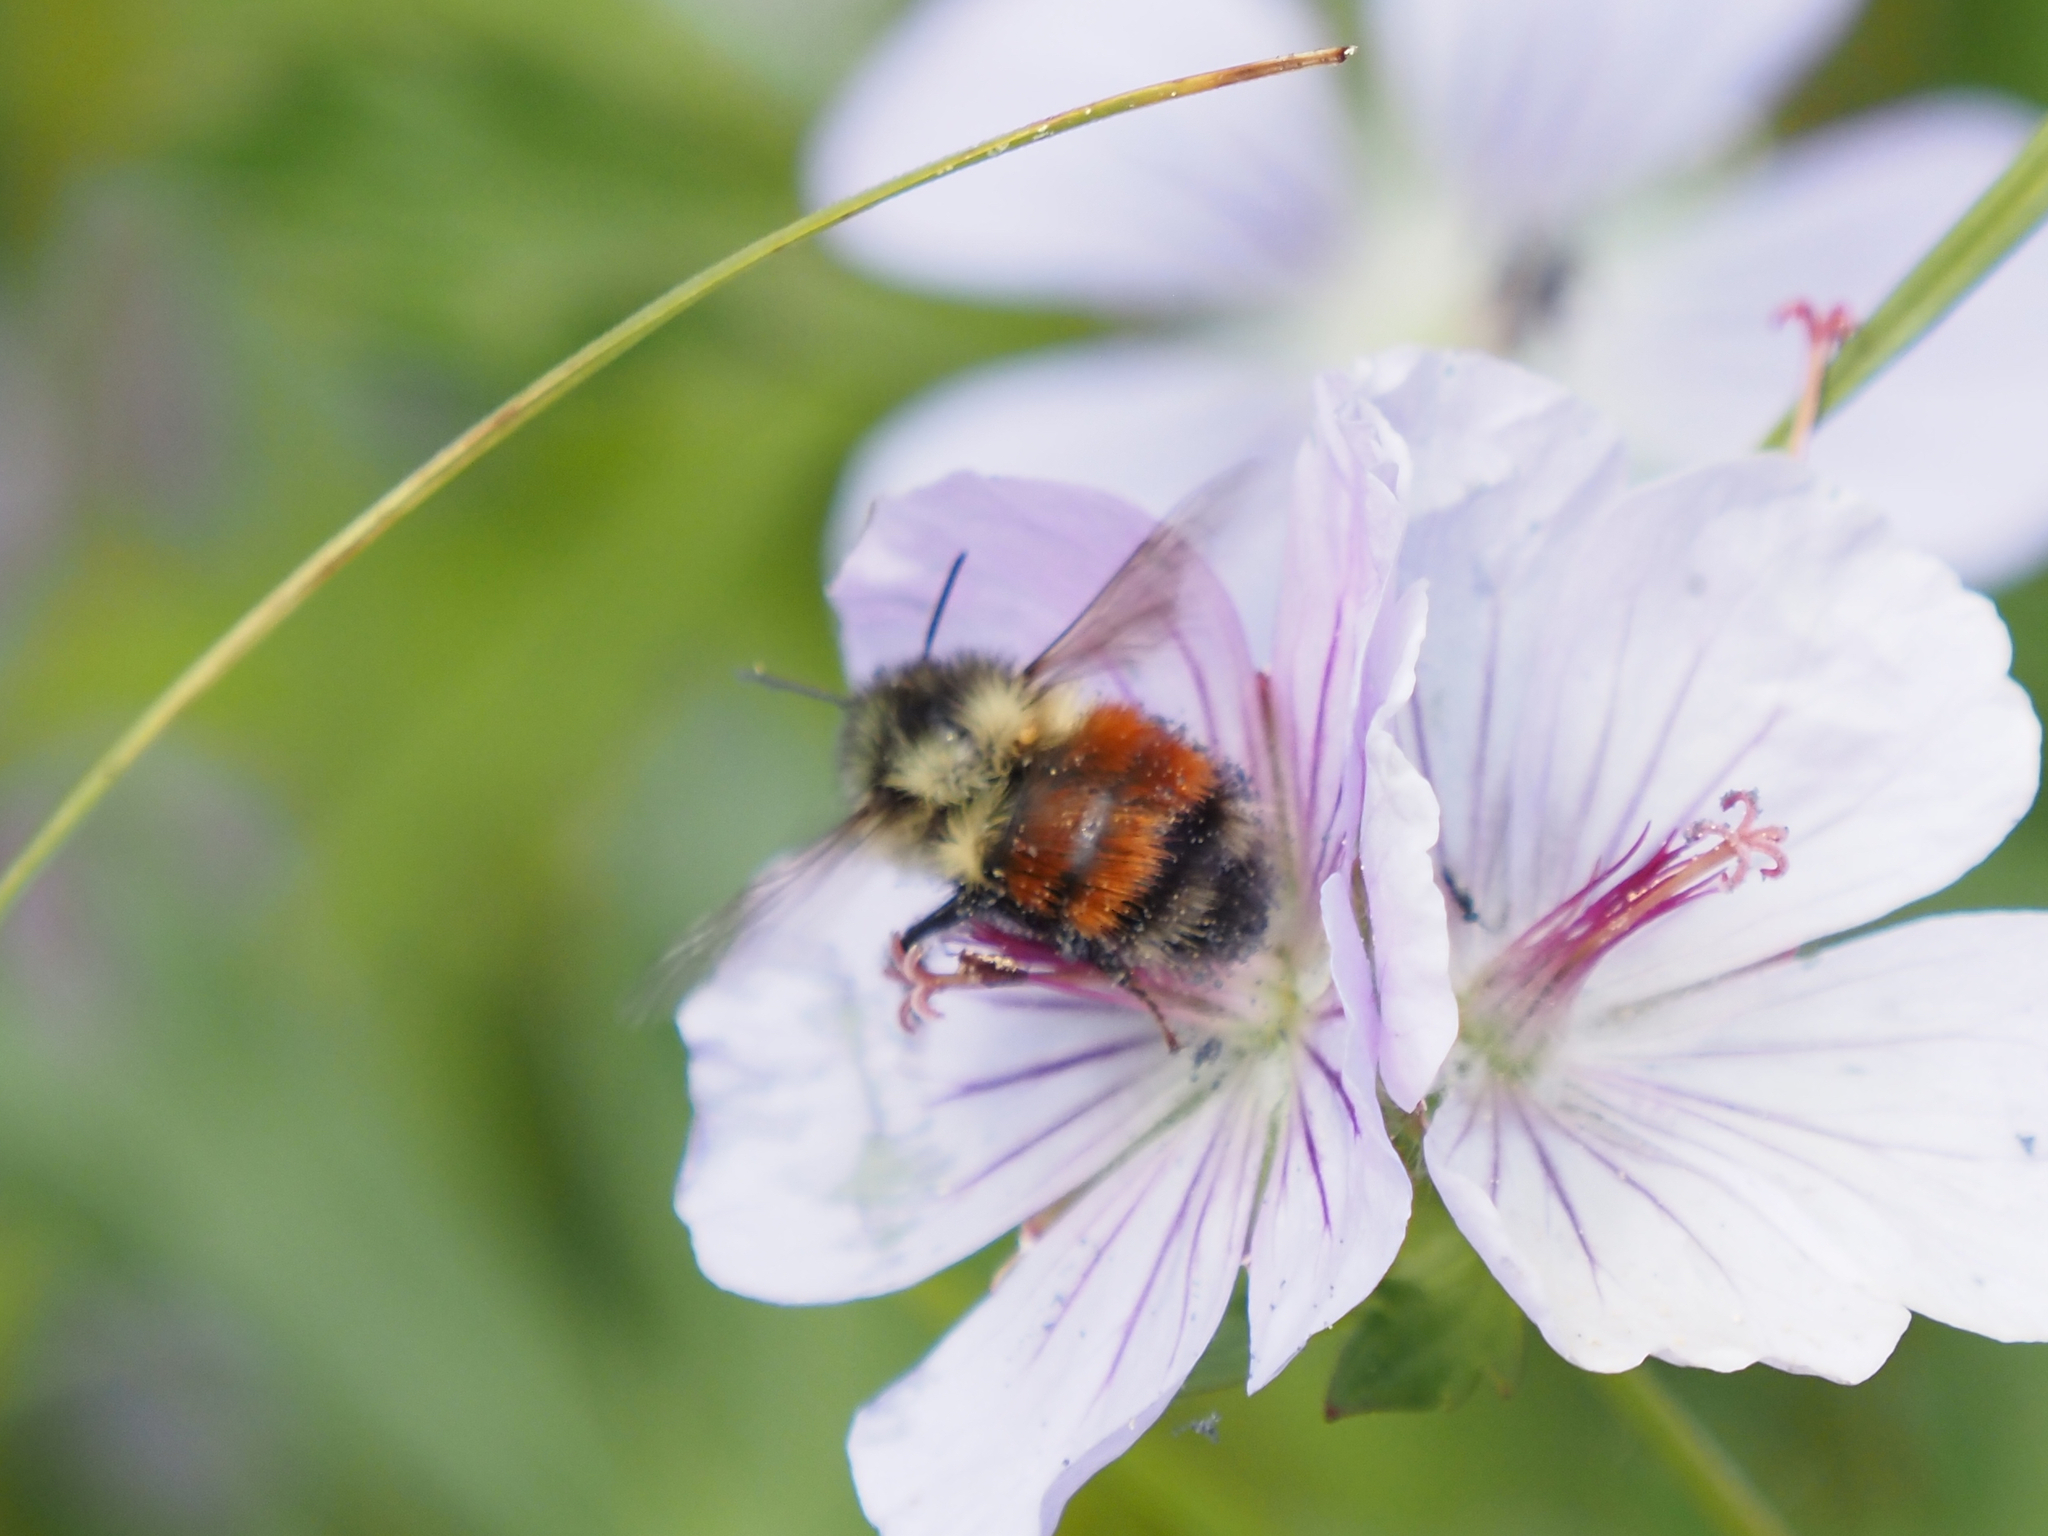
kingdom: Animalia
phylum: Arthropoda
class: Insecta
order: Hymenoptera
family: Apidae
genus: Bombus
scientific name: Bombus melanopygus
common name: Black tail bumble bee
